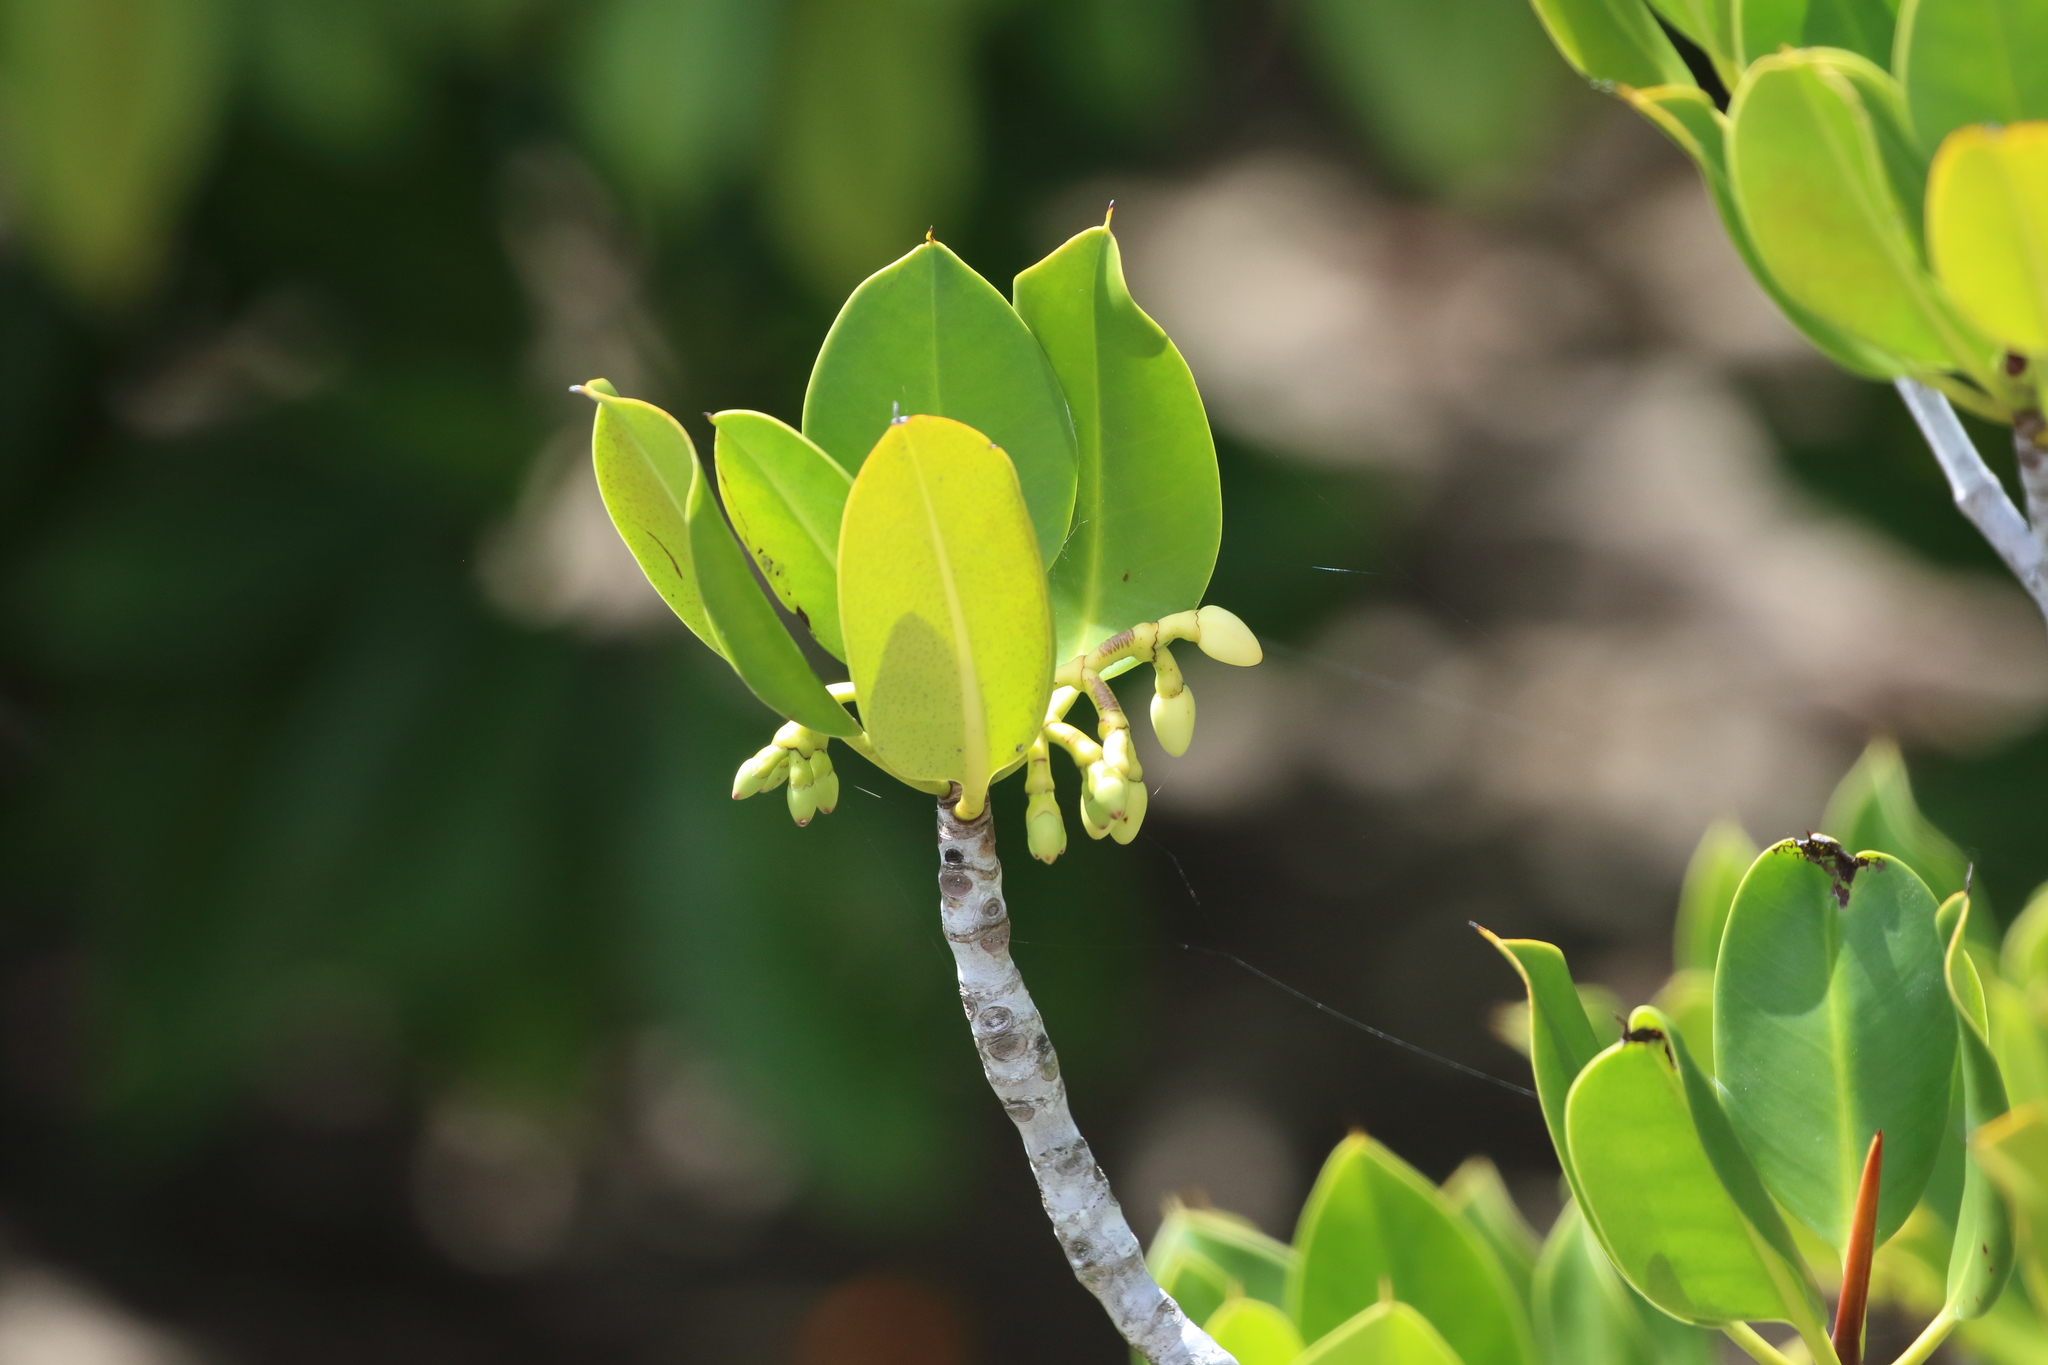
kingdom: Plantae
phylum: Tracheophyta
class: Magnoliopsida
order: Malpighiales
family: Rhizophoraceae
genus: Rhizophora
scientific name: Rhizophora stylosa
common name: Red mangrove
